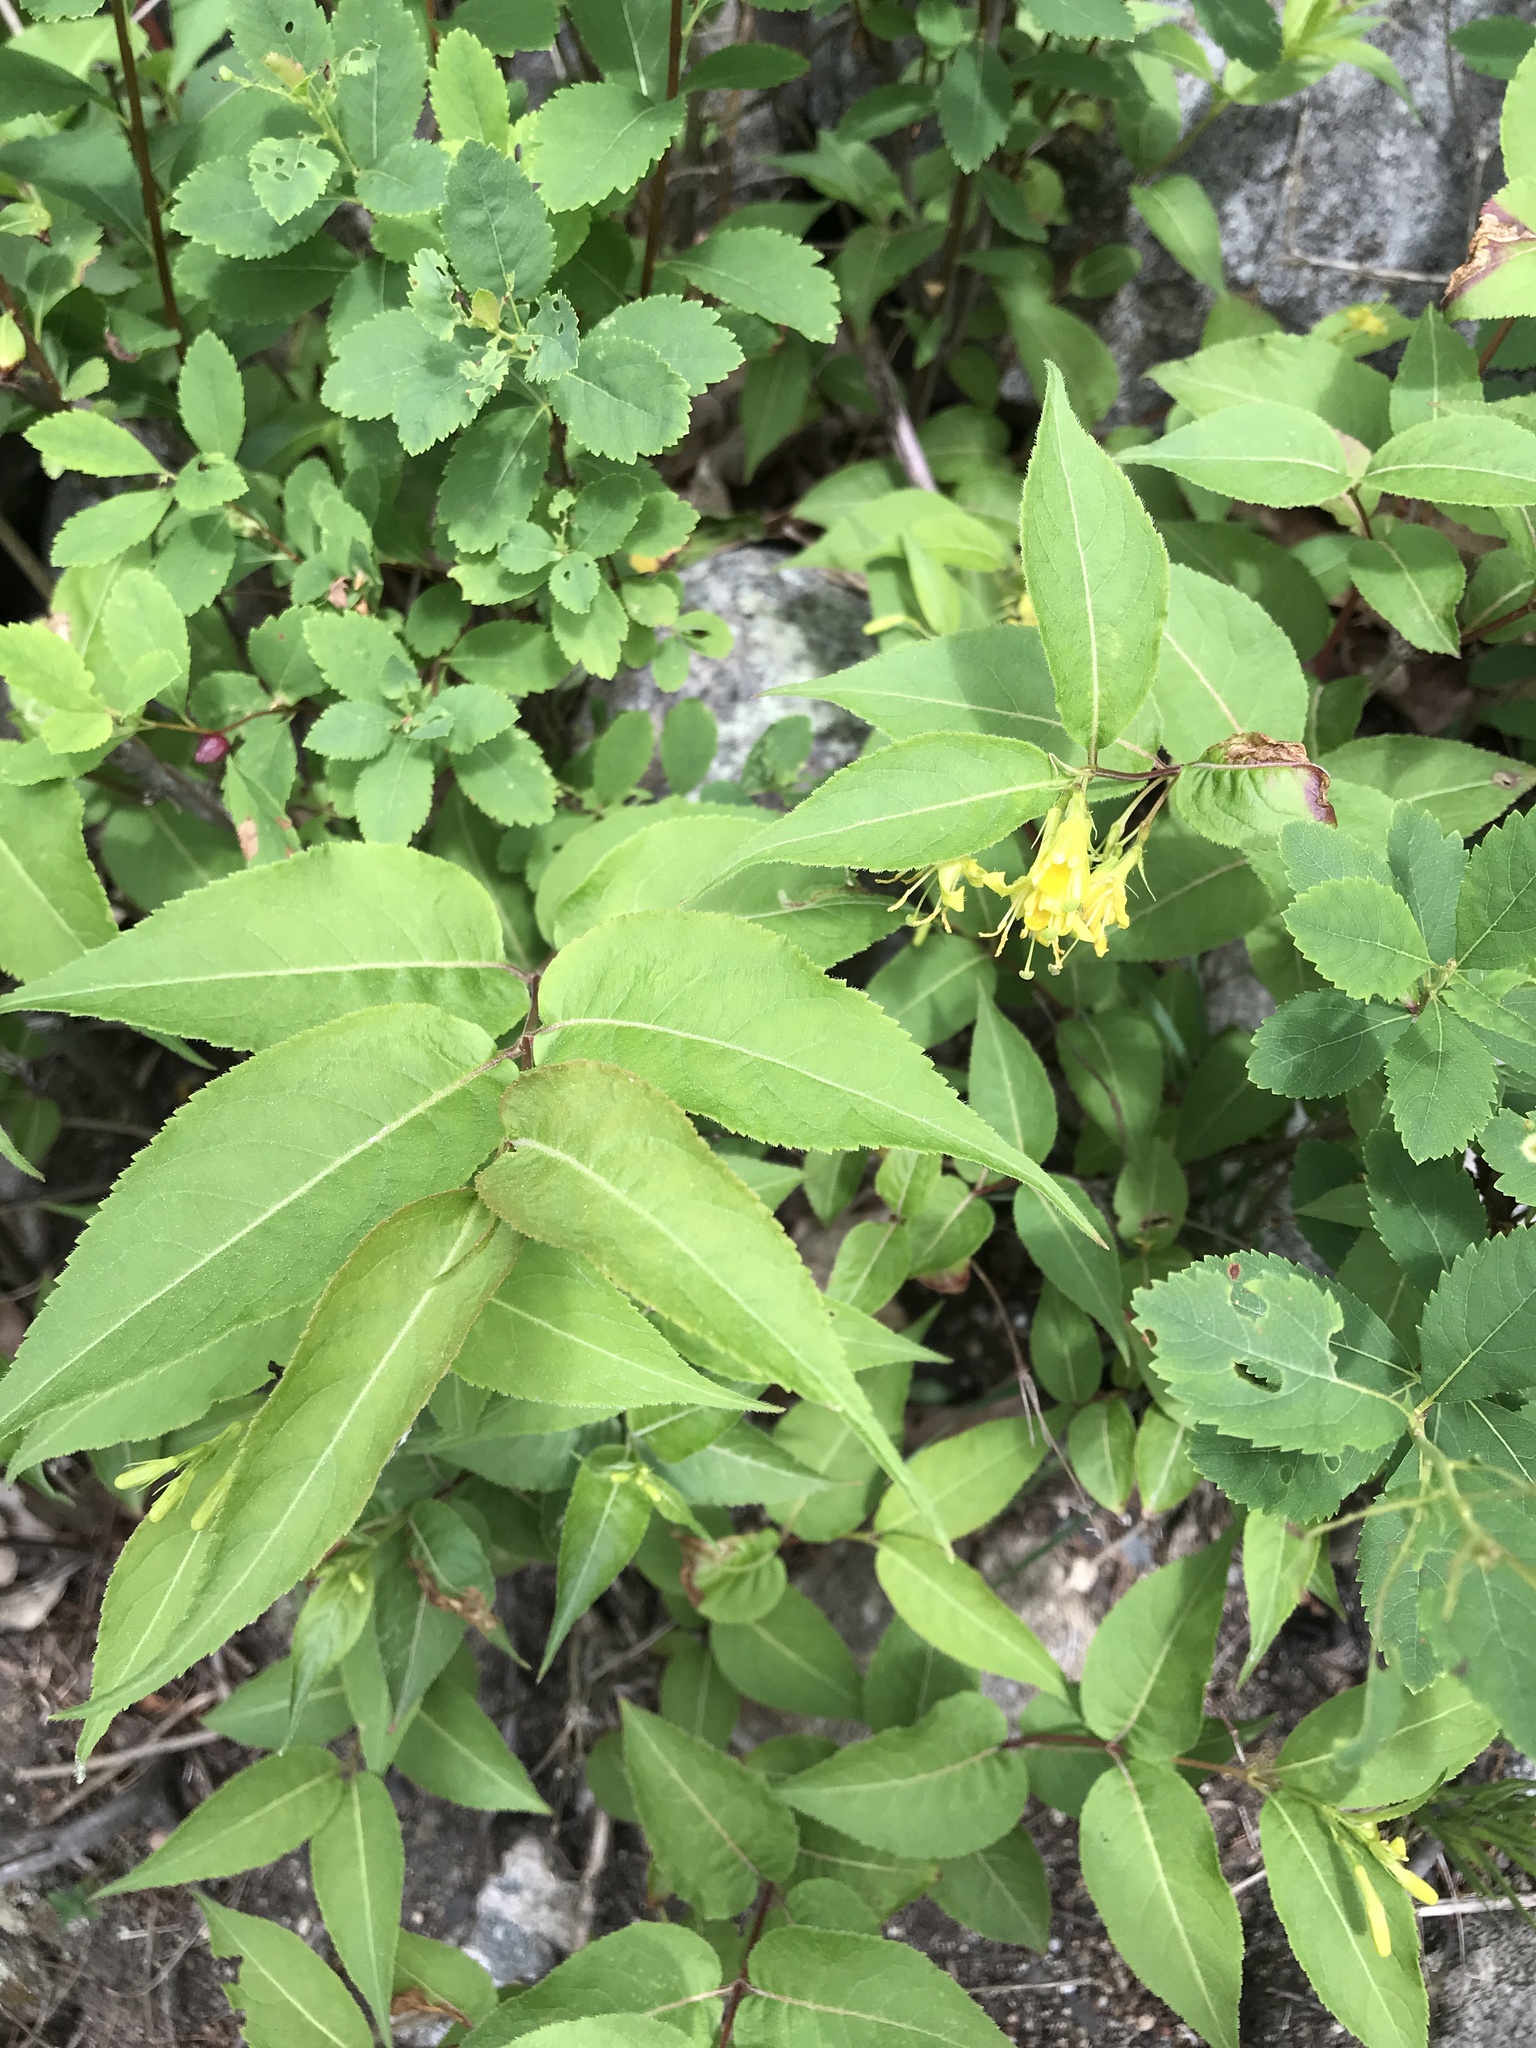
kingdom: Plantae
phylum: Tracheophyta
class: Magnoliopsida
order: Dipsacales
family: Caprifoliaceae
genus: Diervilla
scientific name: Diervilla lonicera
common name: Bush-honeysuckle
